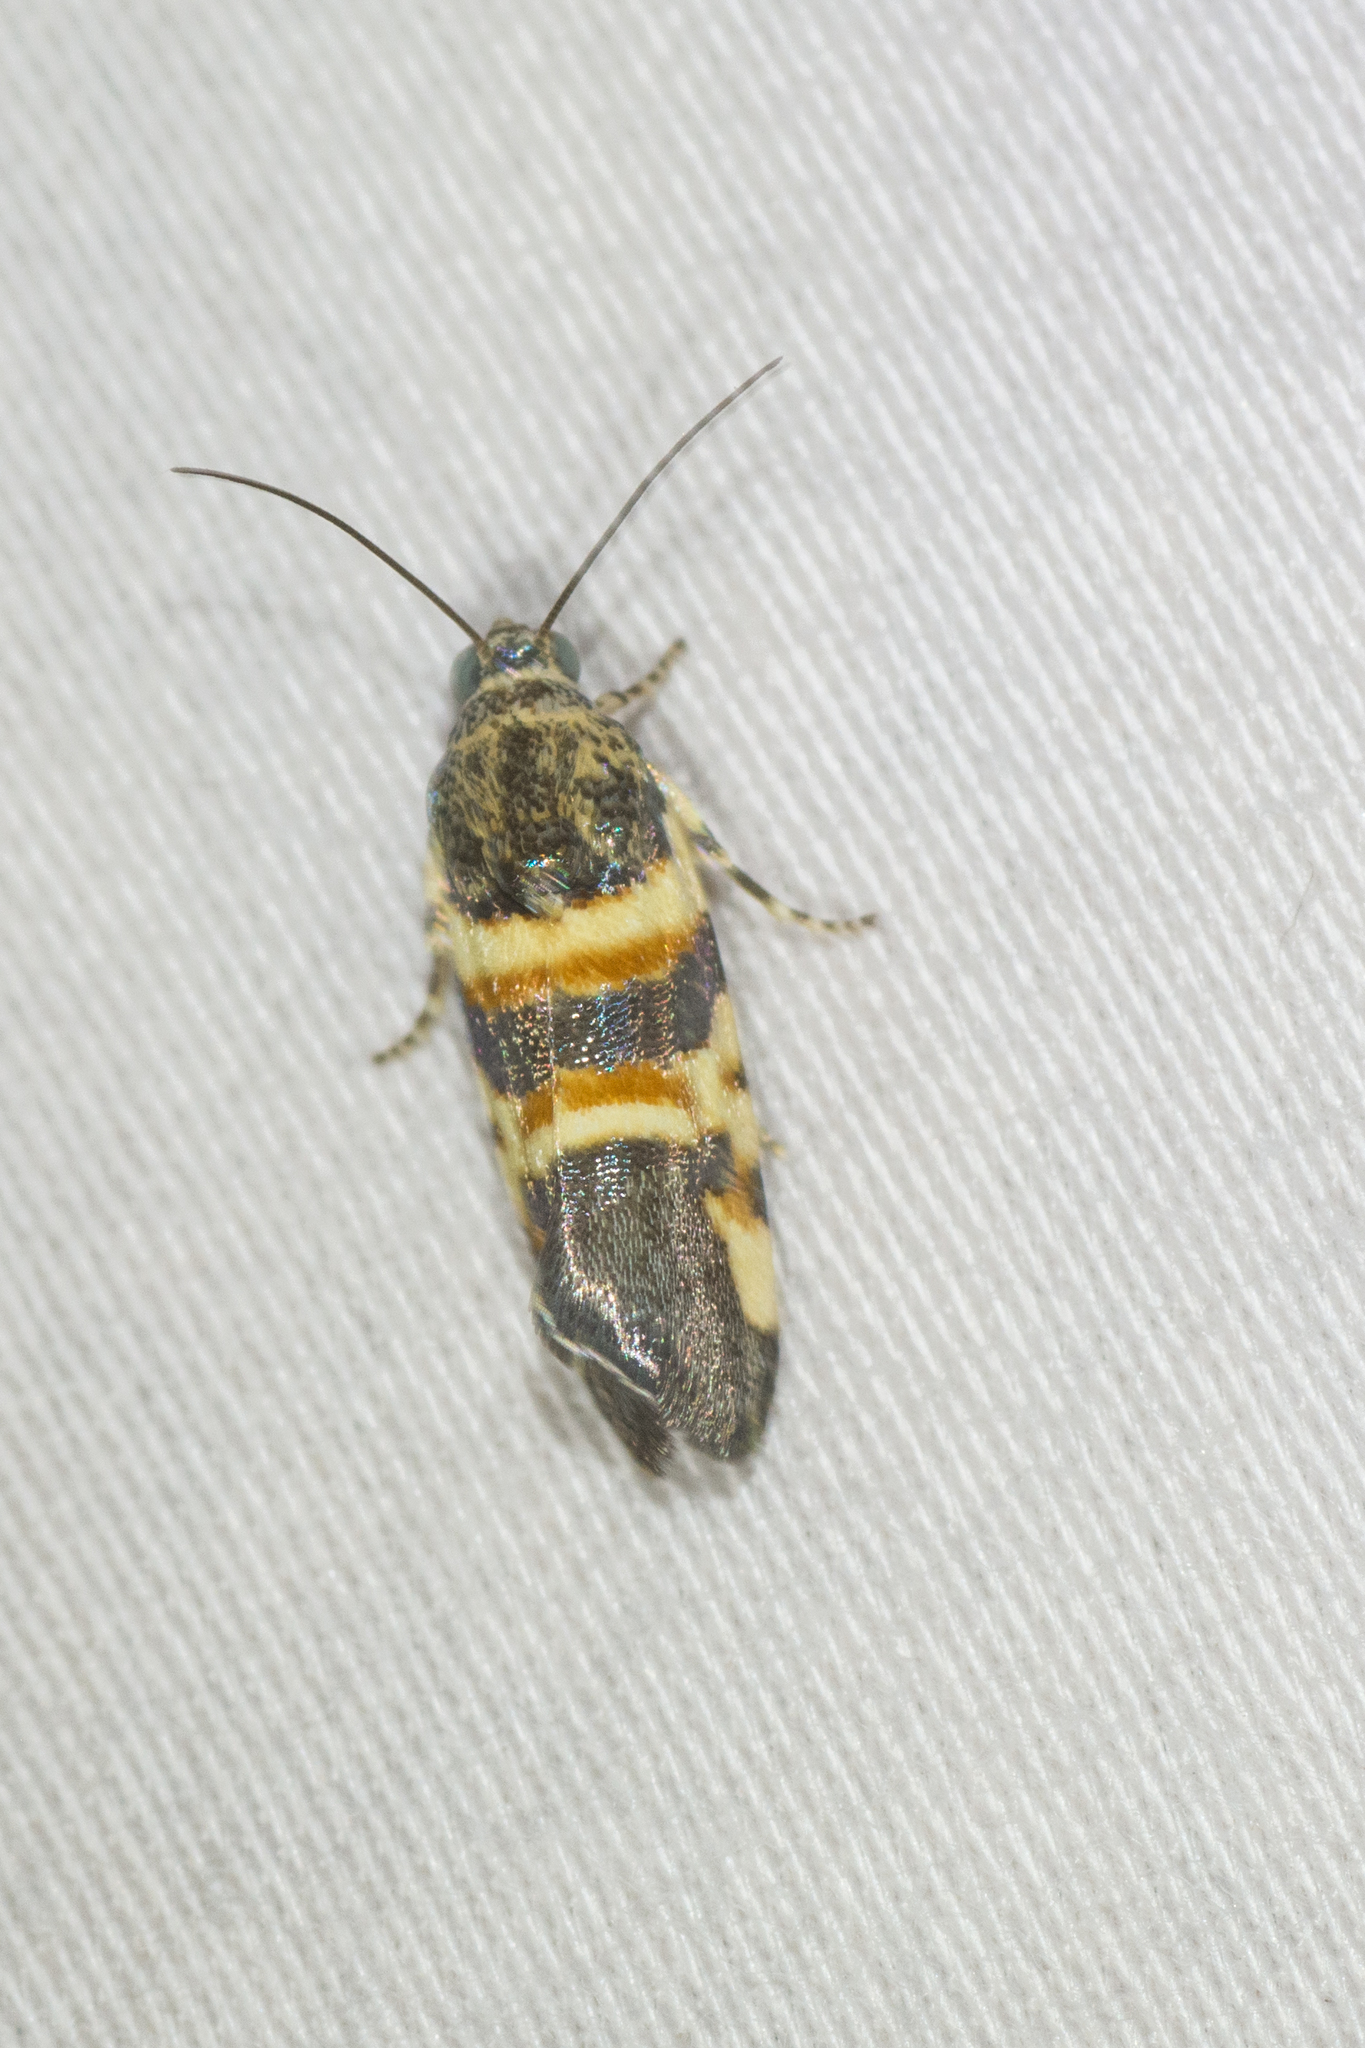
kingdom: Animalia
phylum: Arthropoda
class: Insecta
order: Lepidoptera
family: Noctuidae
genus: Spragueia
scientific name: Spragueia funeralis
